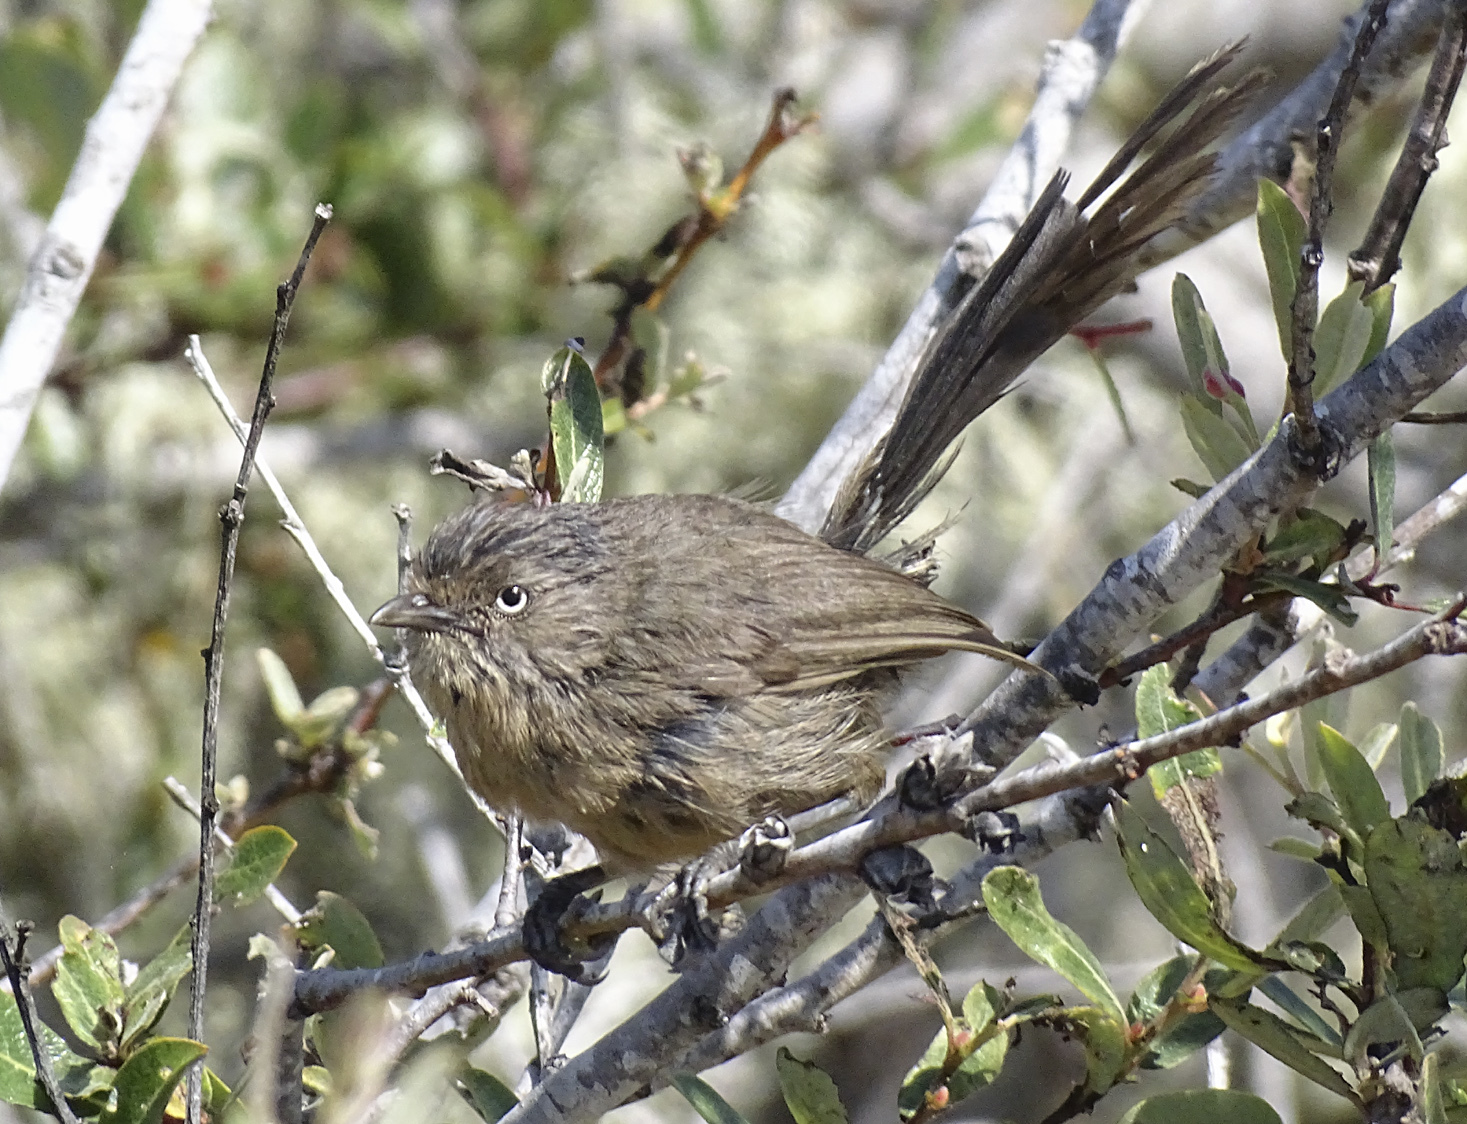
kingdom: Animalia
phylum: Chordata
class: Aves
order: Passeriformes
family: Sylviidae
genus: Chamaea
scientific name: Chamaea fasciata
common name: Wrentit
